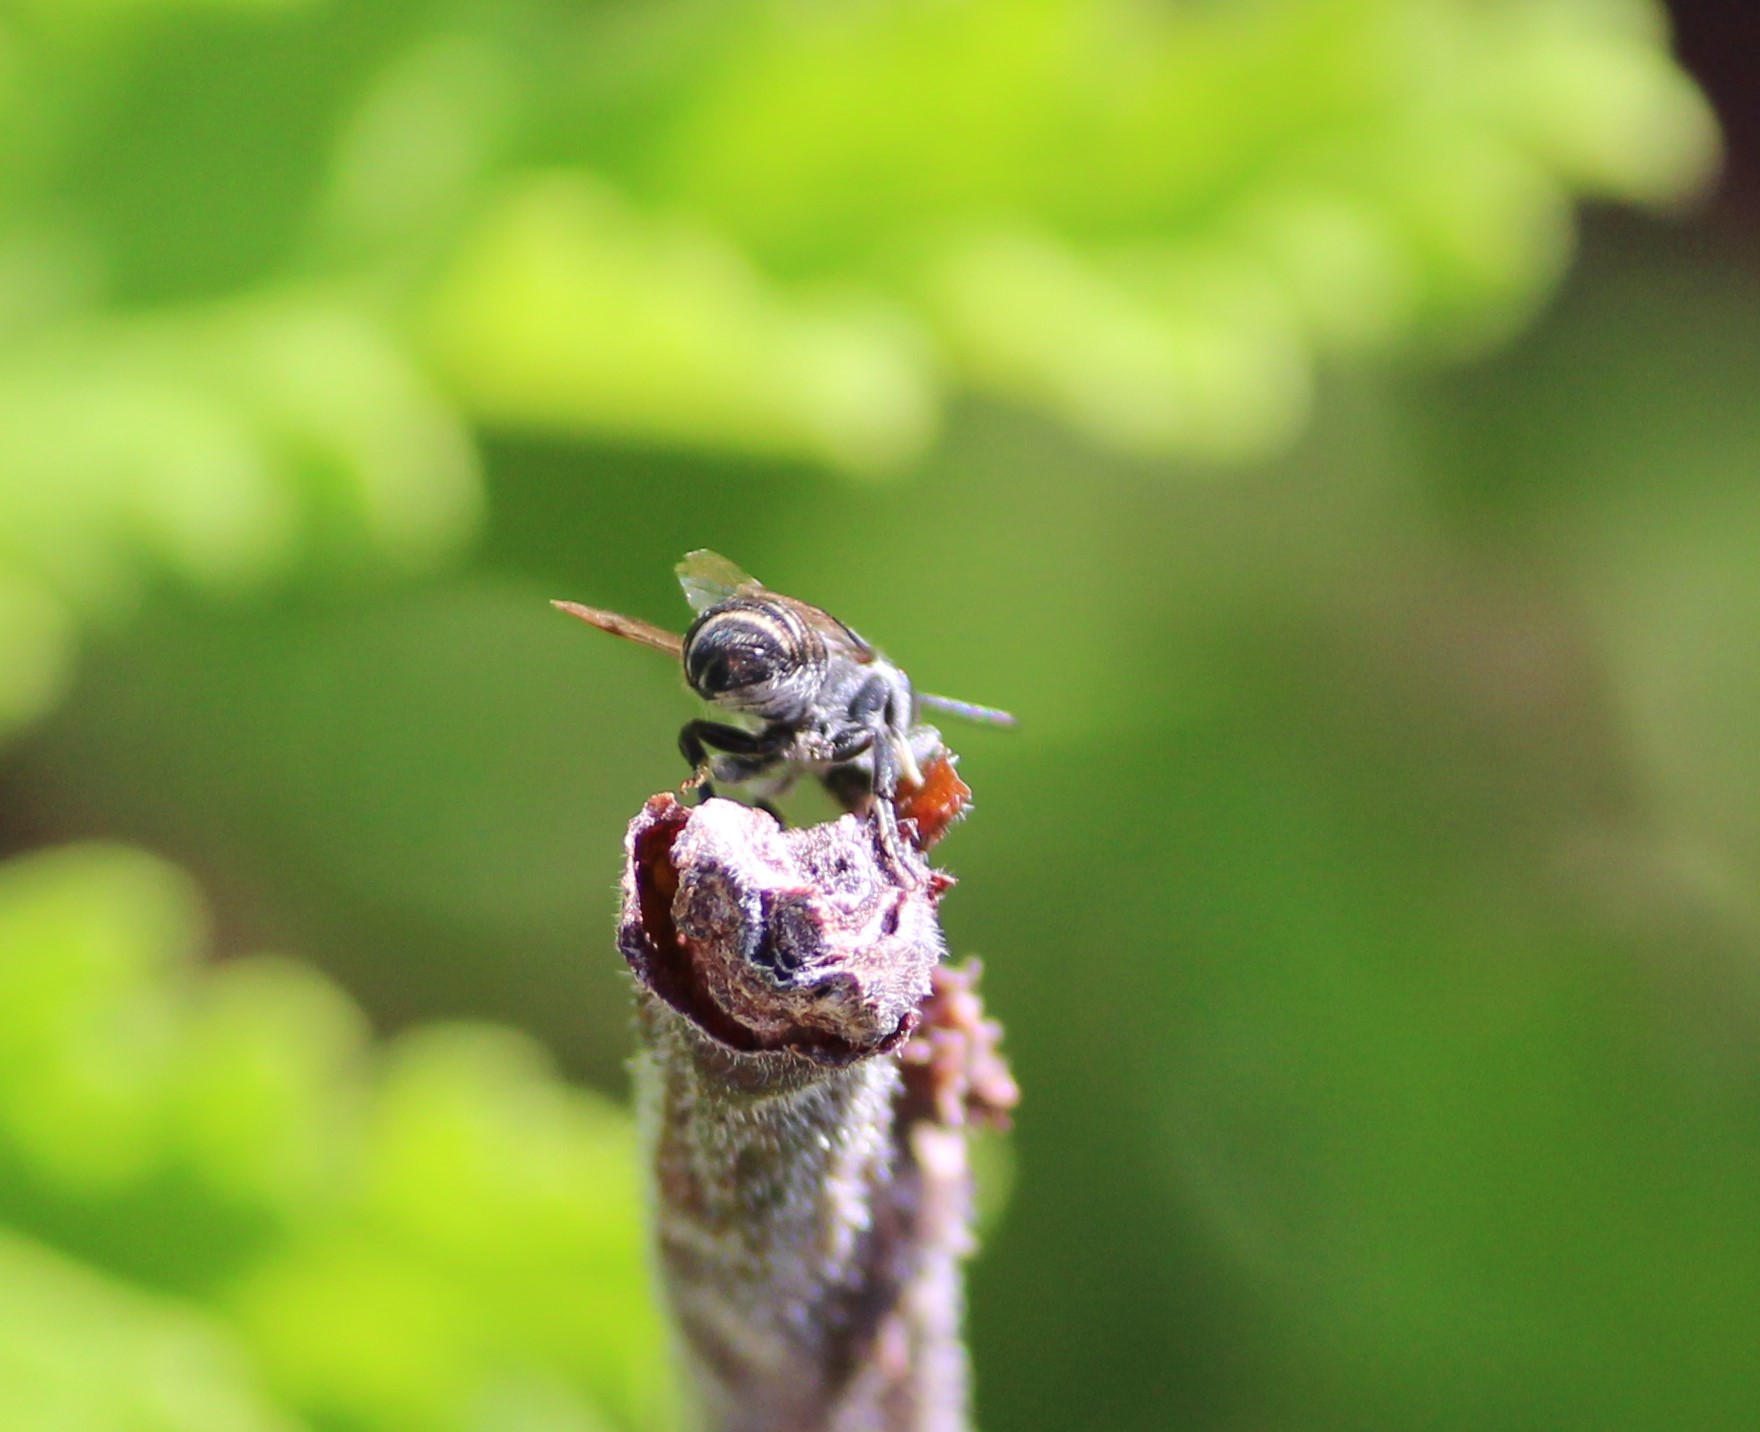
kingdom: Animalia
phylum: Arthropoda
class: Insecta
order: Hymenoptera
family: Megachilidae
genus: Megachile
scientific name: Megachile rotundata
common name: Alfalfa leafcutting bee
